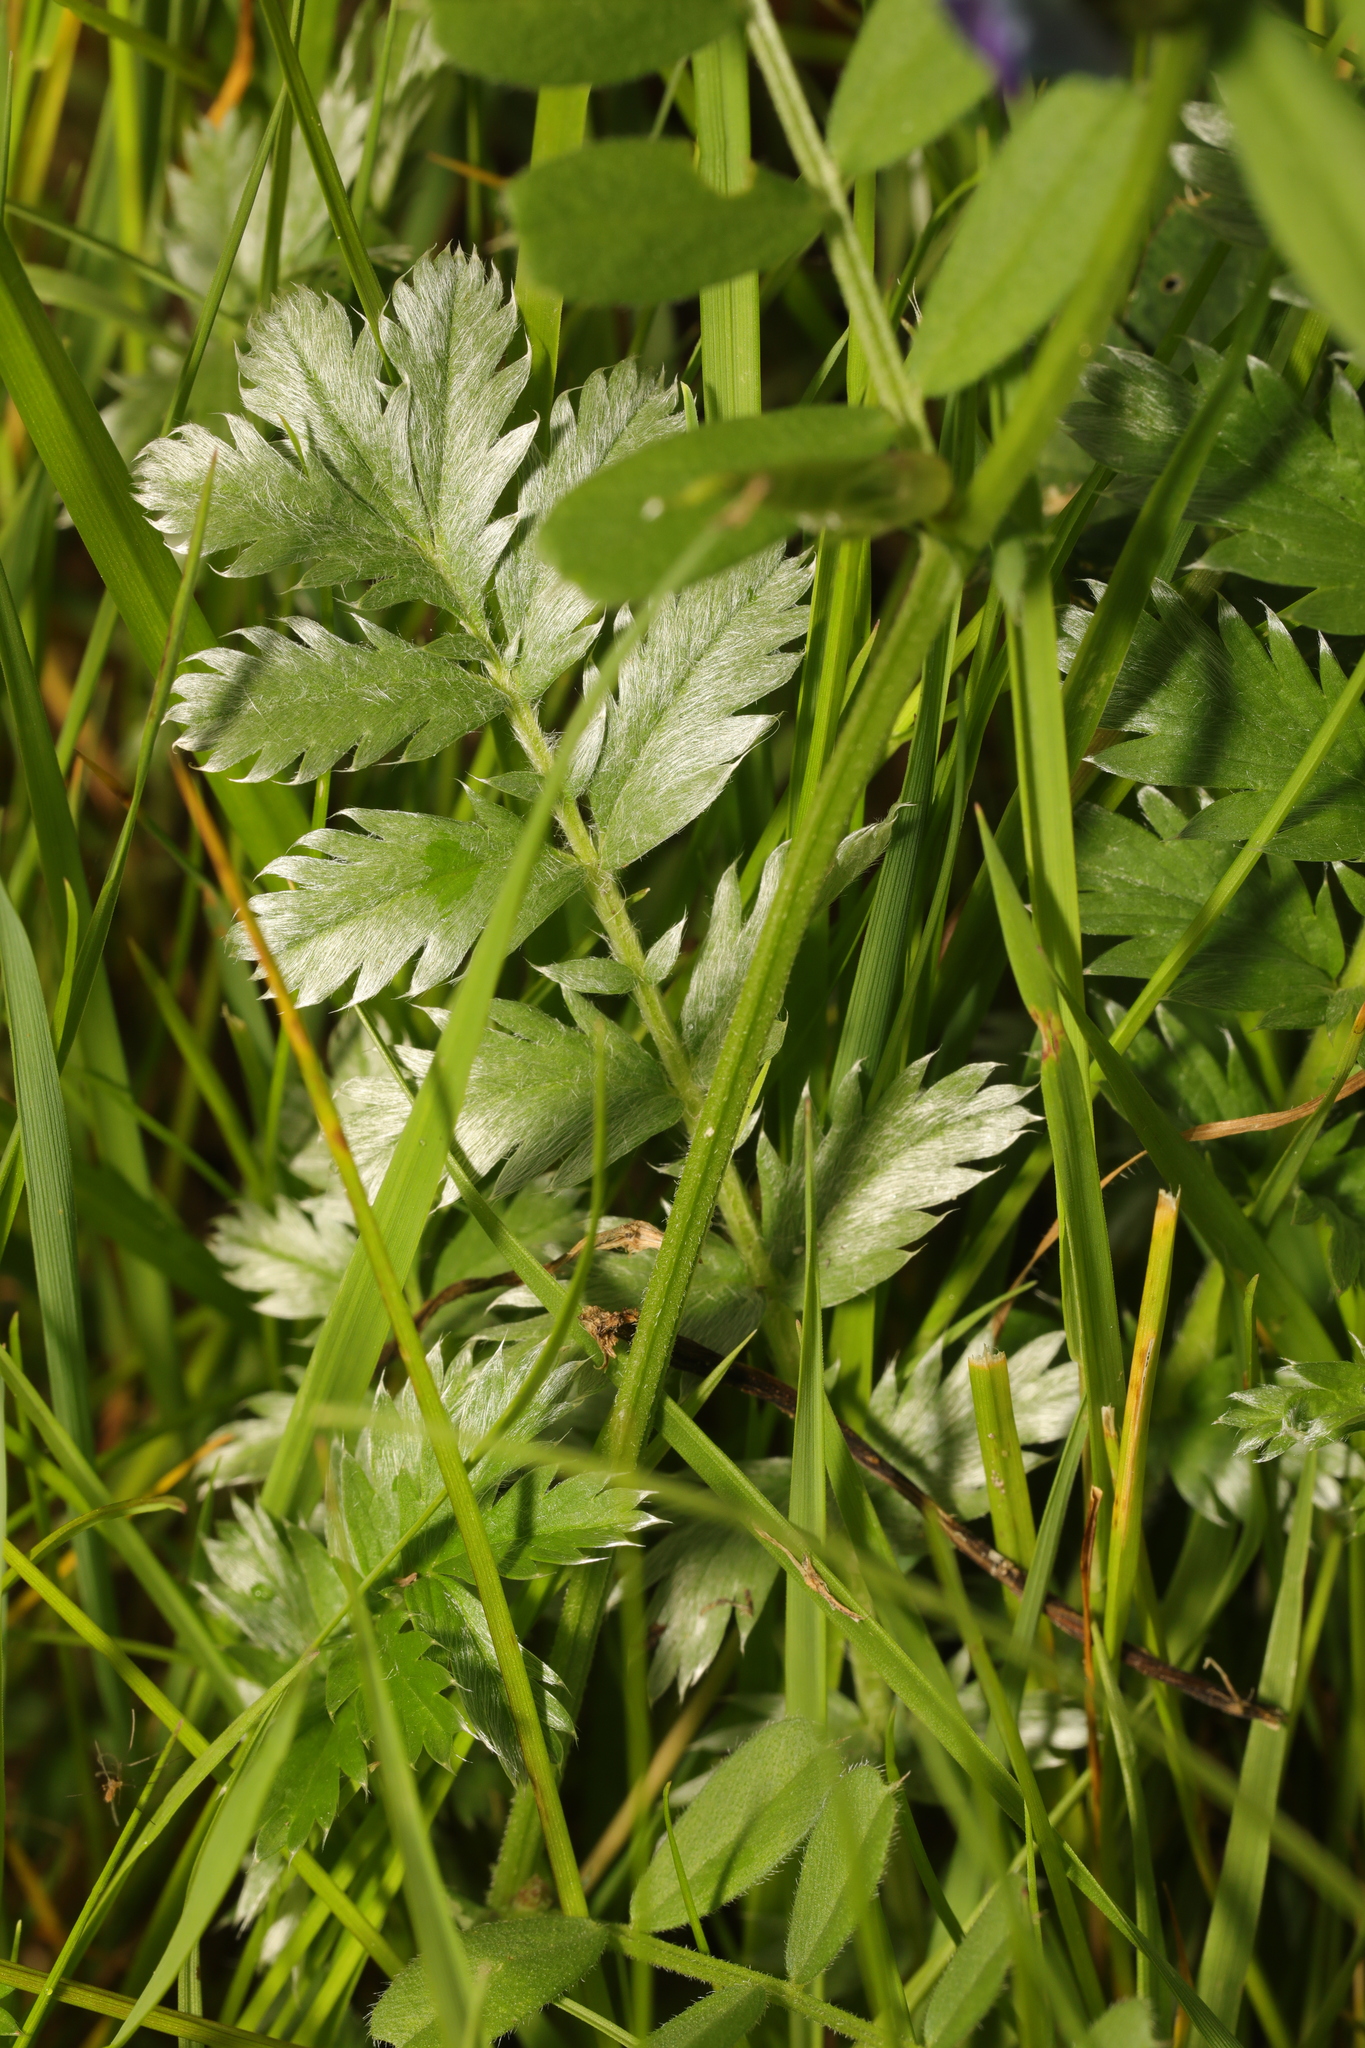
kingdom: Plantae
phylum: Tracheophyta
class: Magnoliopsida
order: Rosales
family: Rosaceae
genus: Argentina
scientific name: Argentina anserina
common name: Common silverweed
